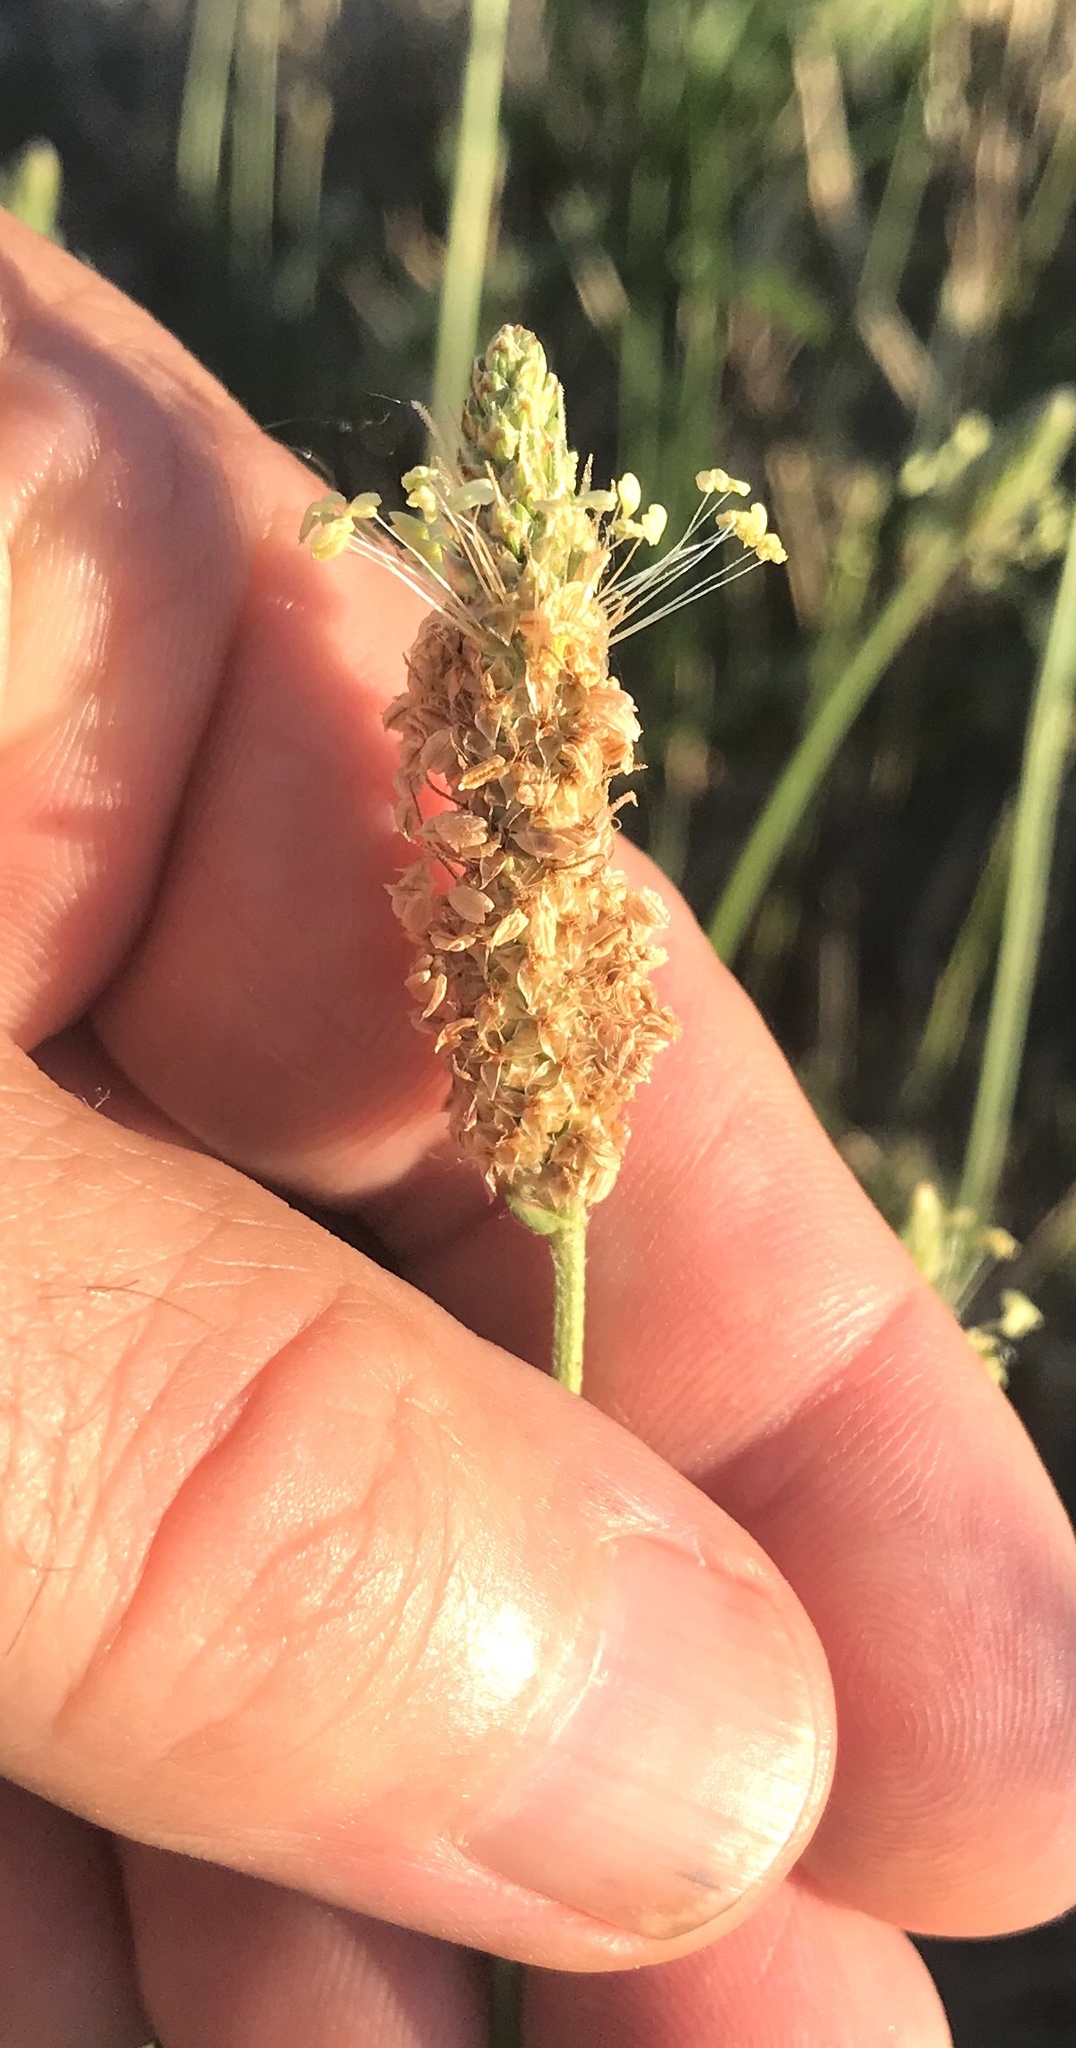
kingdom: Plantae
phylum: Tracheophyta
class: Magnoliopsida
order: Lamiales
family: Plantaginaceae
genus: Plantago
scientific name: Plantago lanceolata
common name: Ribwort plantain
